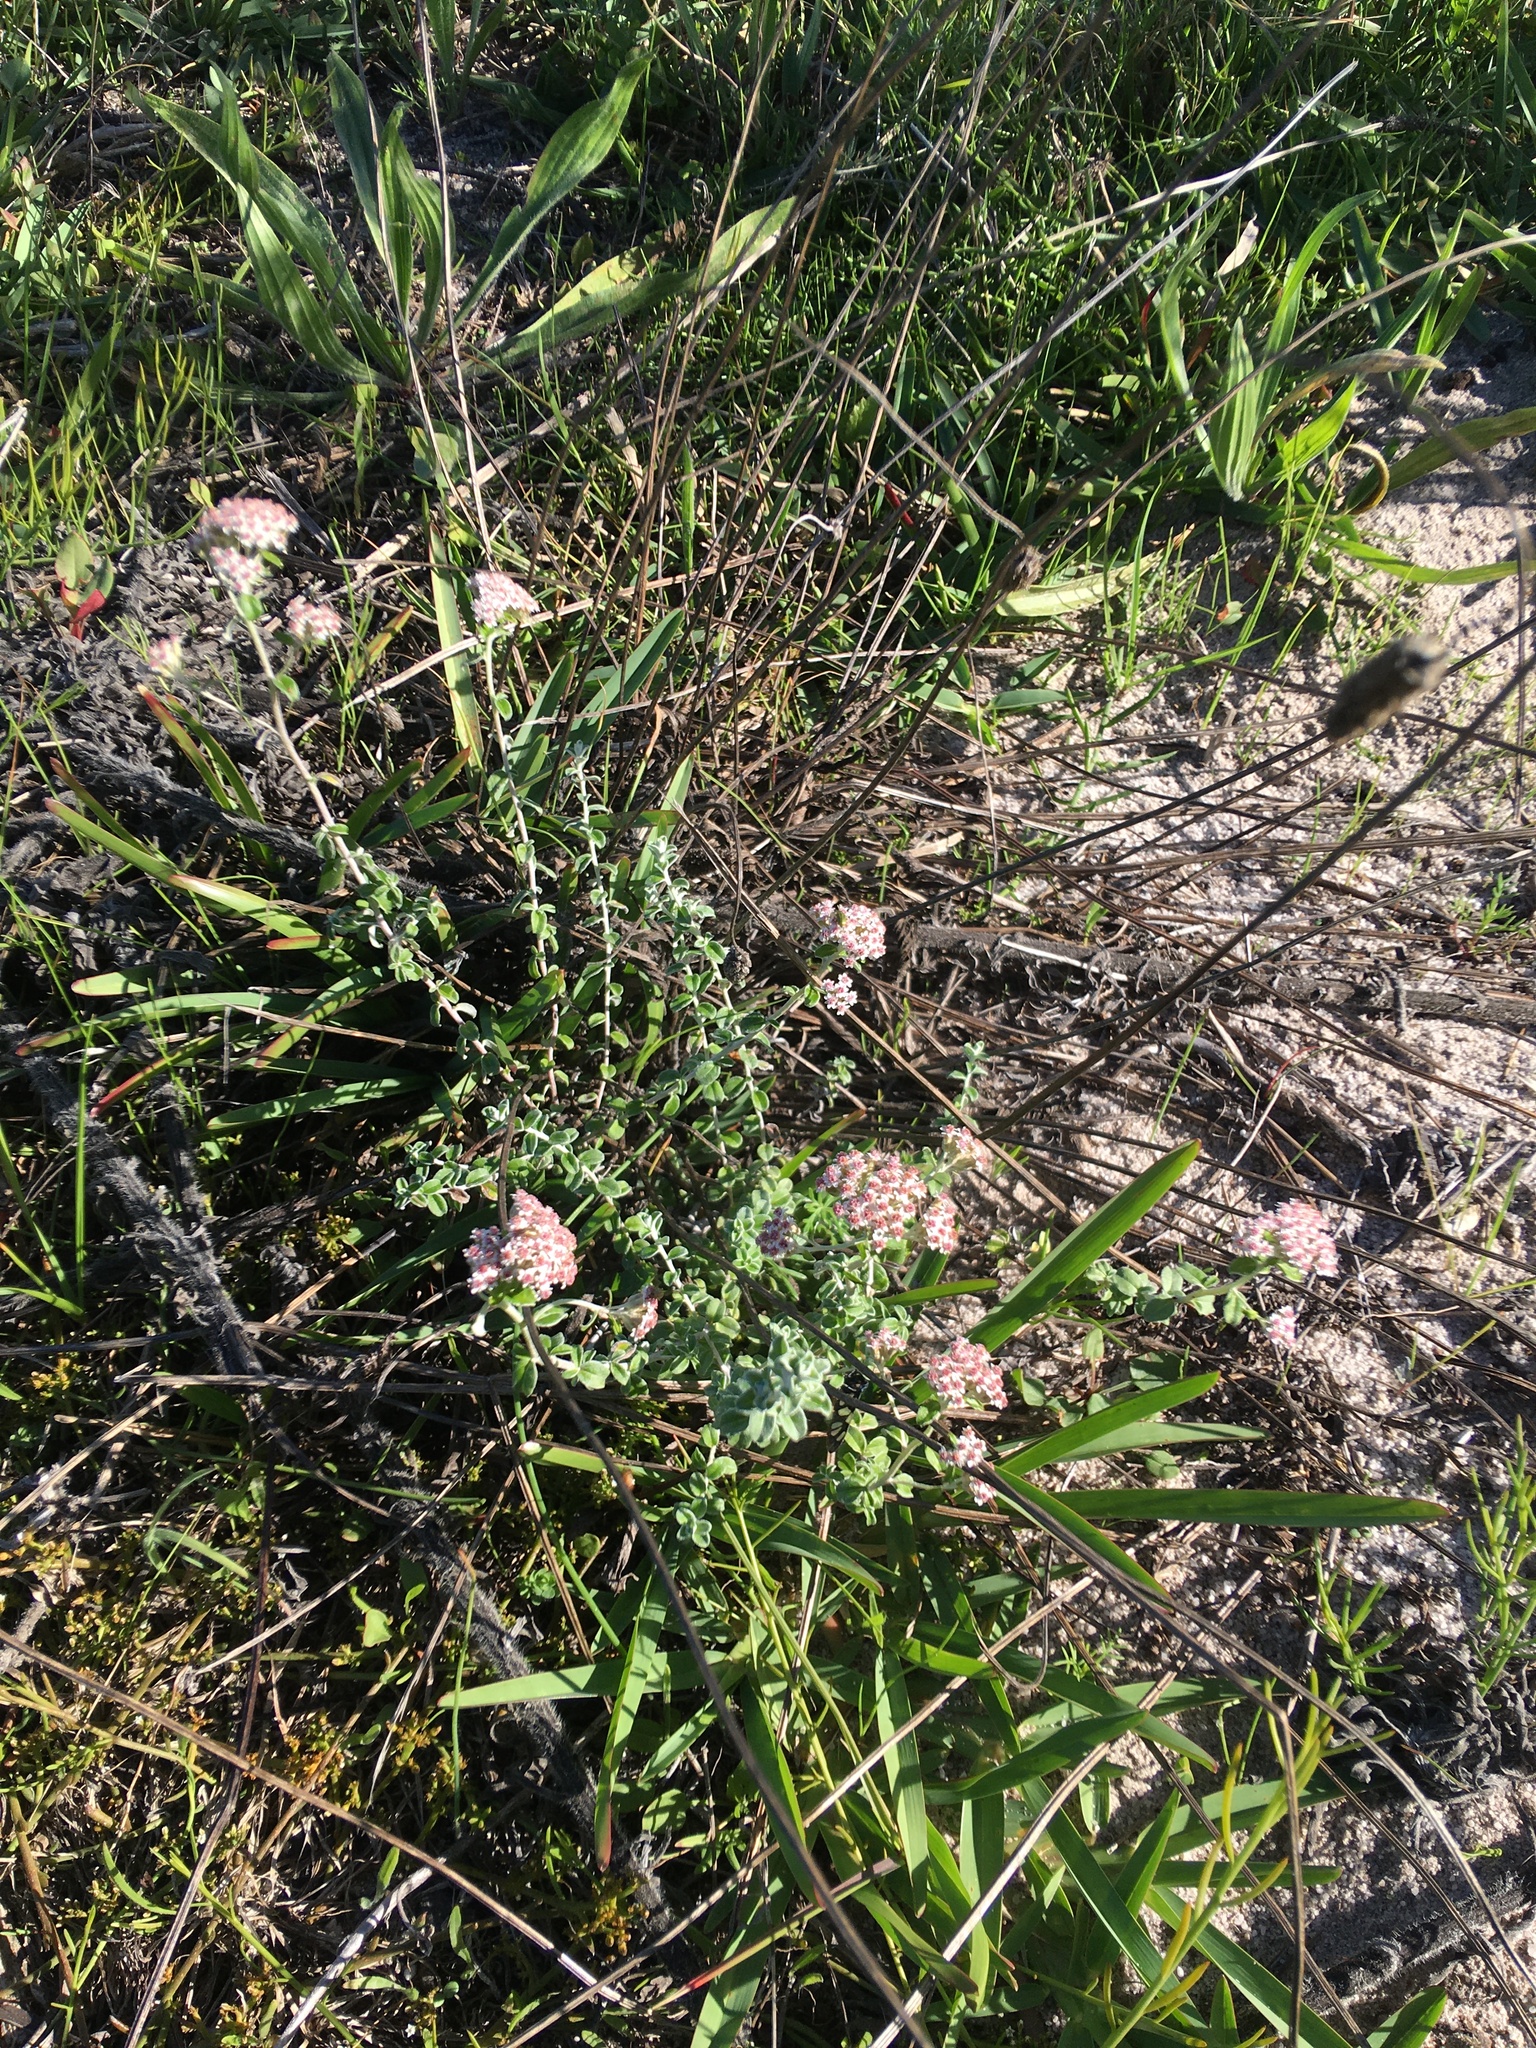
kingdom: Plantae
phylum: Tracheophyta
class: Magnoliopsida
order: Asterales
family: Asteraceae
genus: Plecostachys
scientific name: Plecostachys serpyllifolia
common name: Petite licorice
